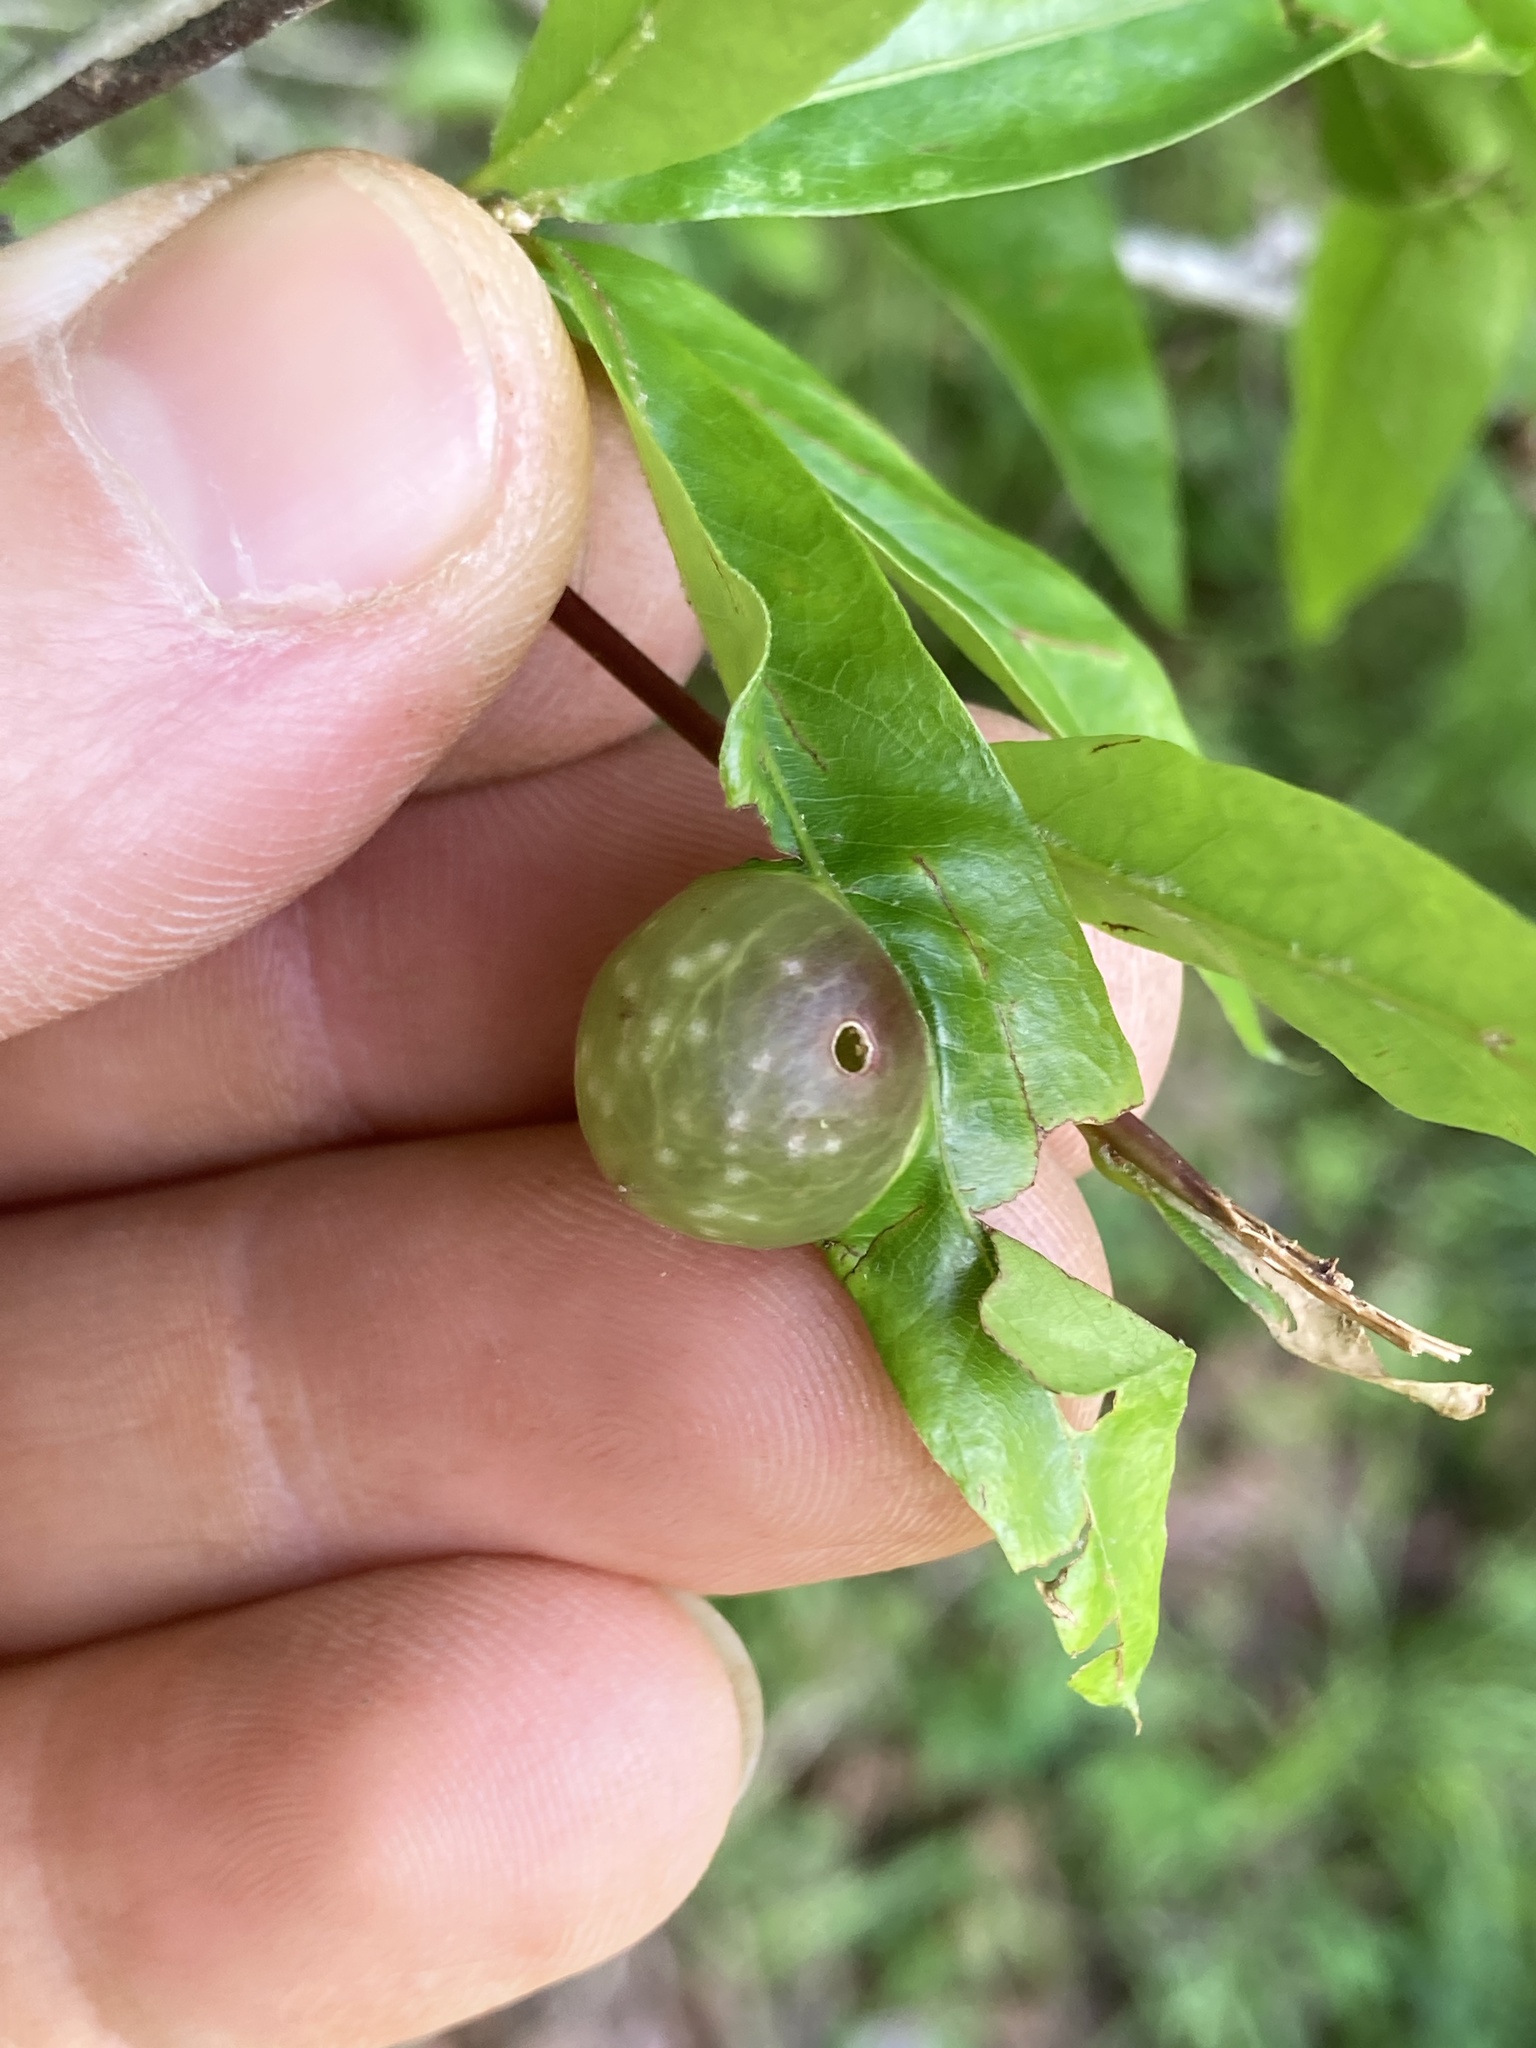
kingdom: Animalia
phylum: Arthropoda
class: Insecta
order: Hymenoptera
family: Cynipidae
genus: Dryocosmus
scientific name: Dryocosmus
